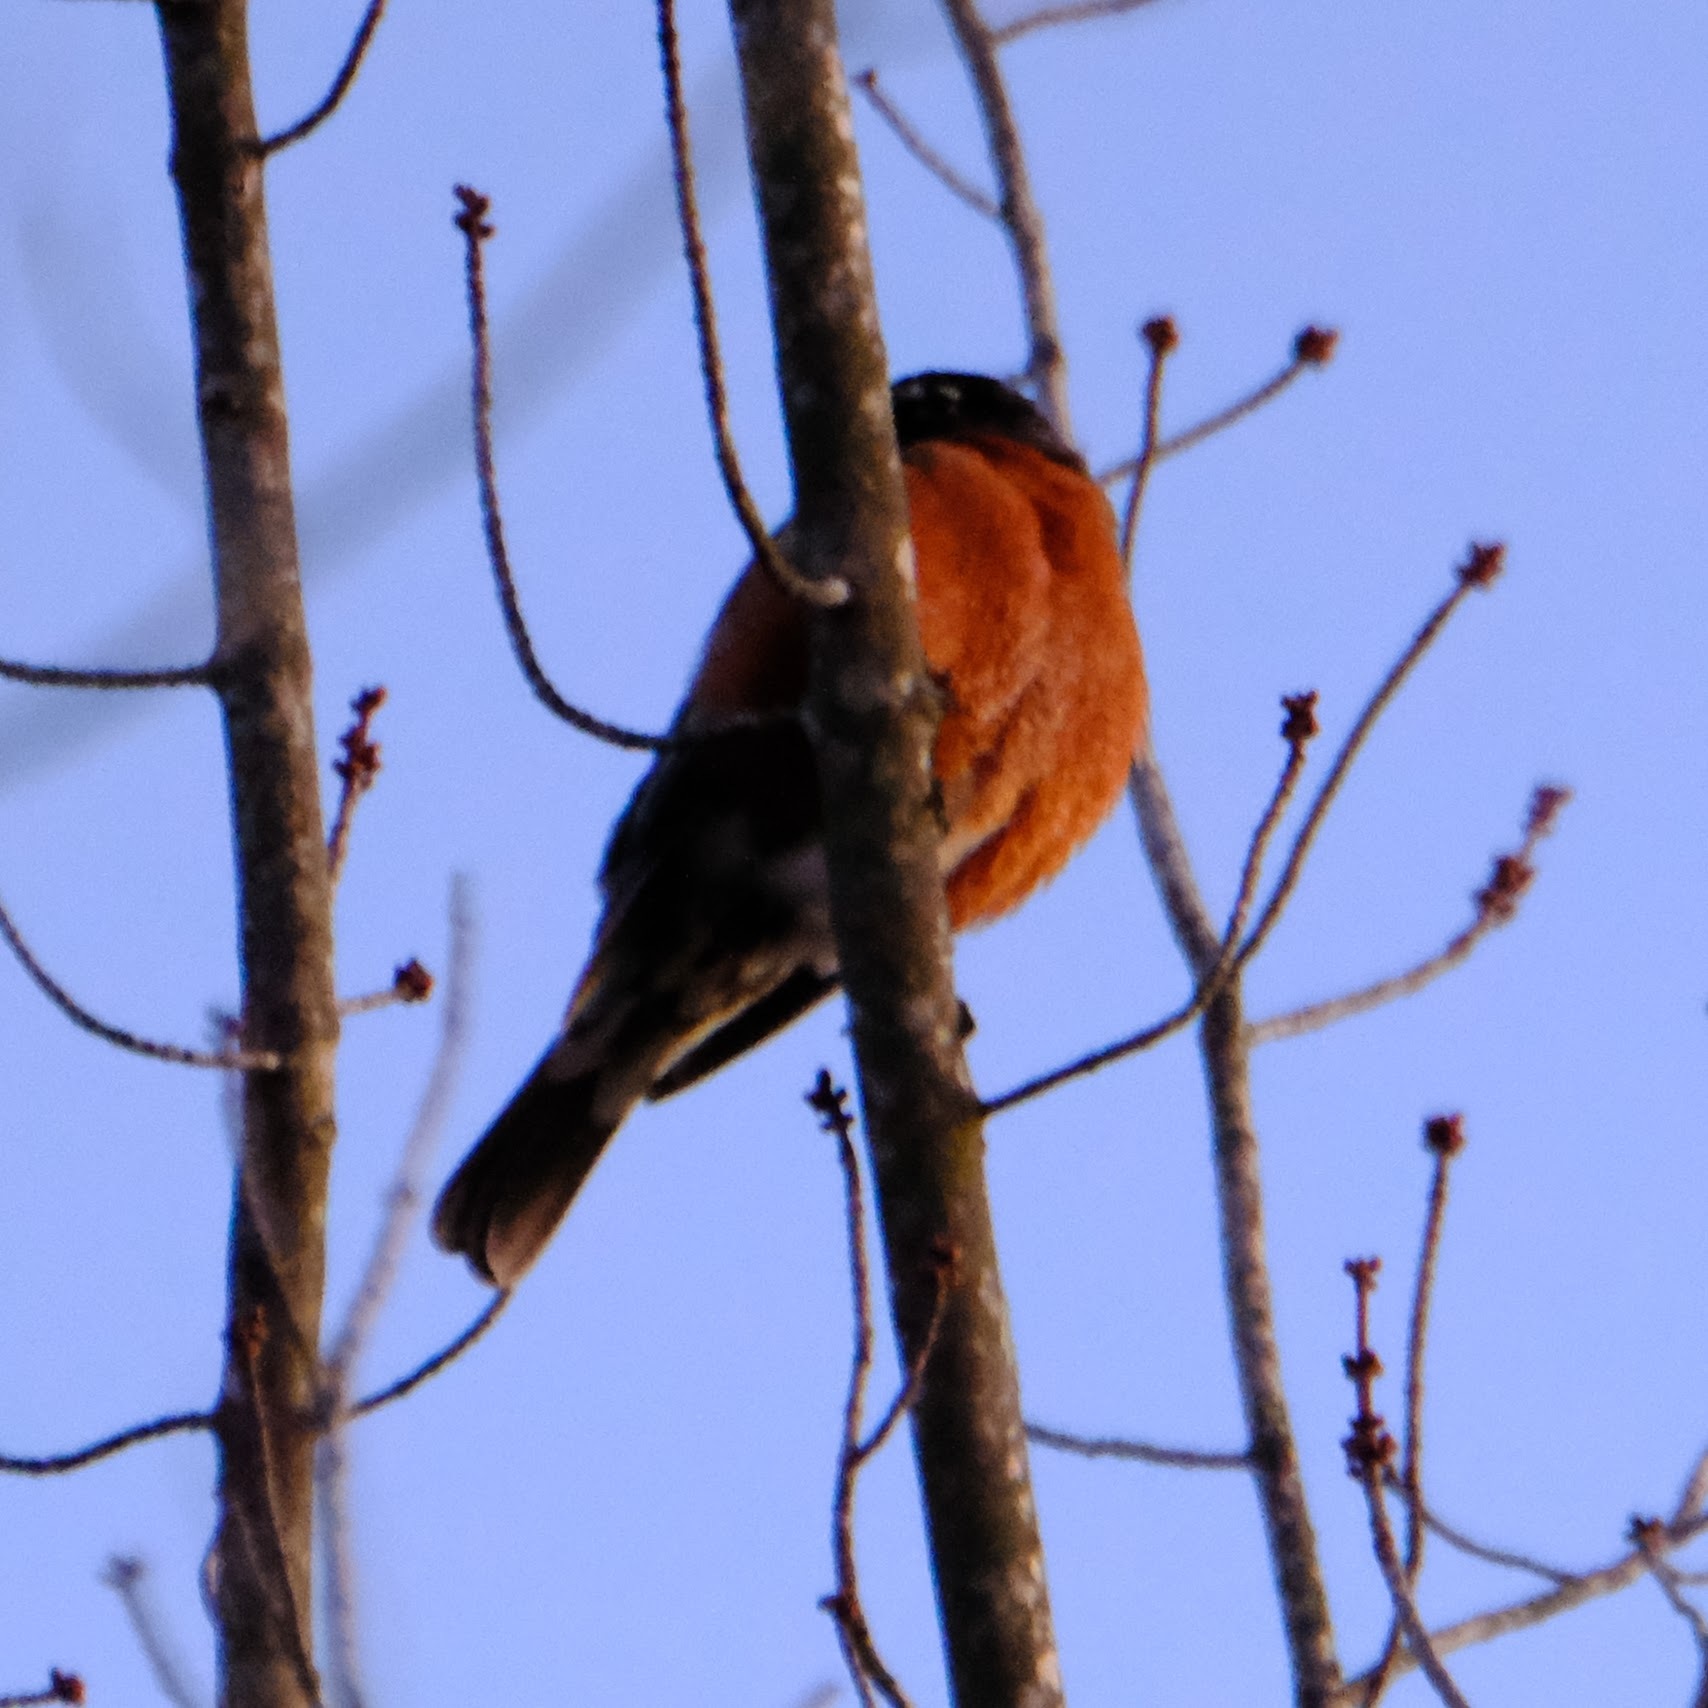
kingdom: Animalia
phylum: Chordata
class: Aves
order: Passeriformes
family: Turdidae
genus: Turdus
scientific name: Turdus migratorius
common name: American robin
